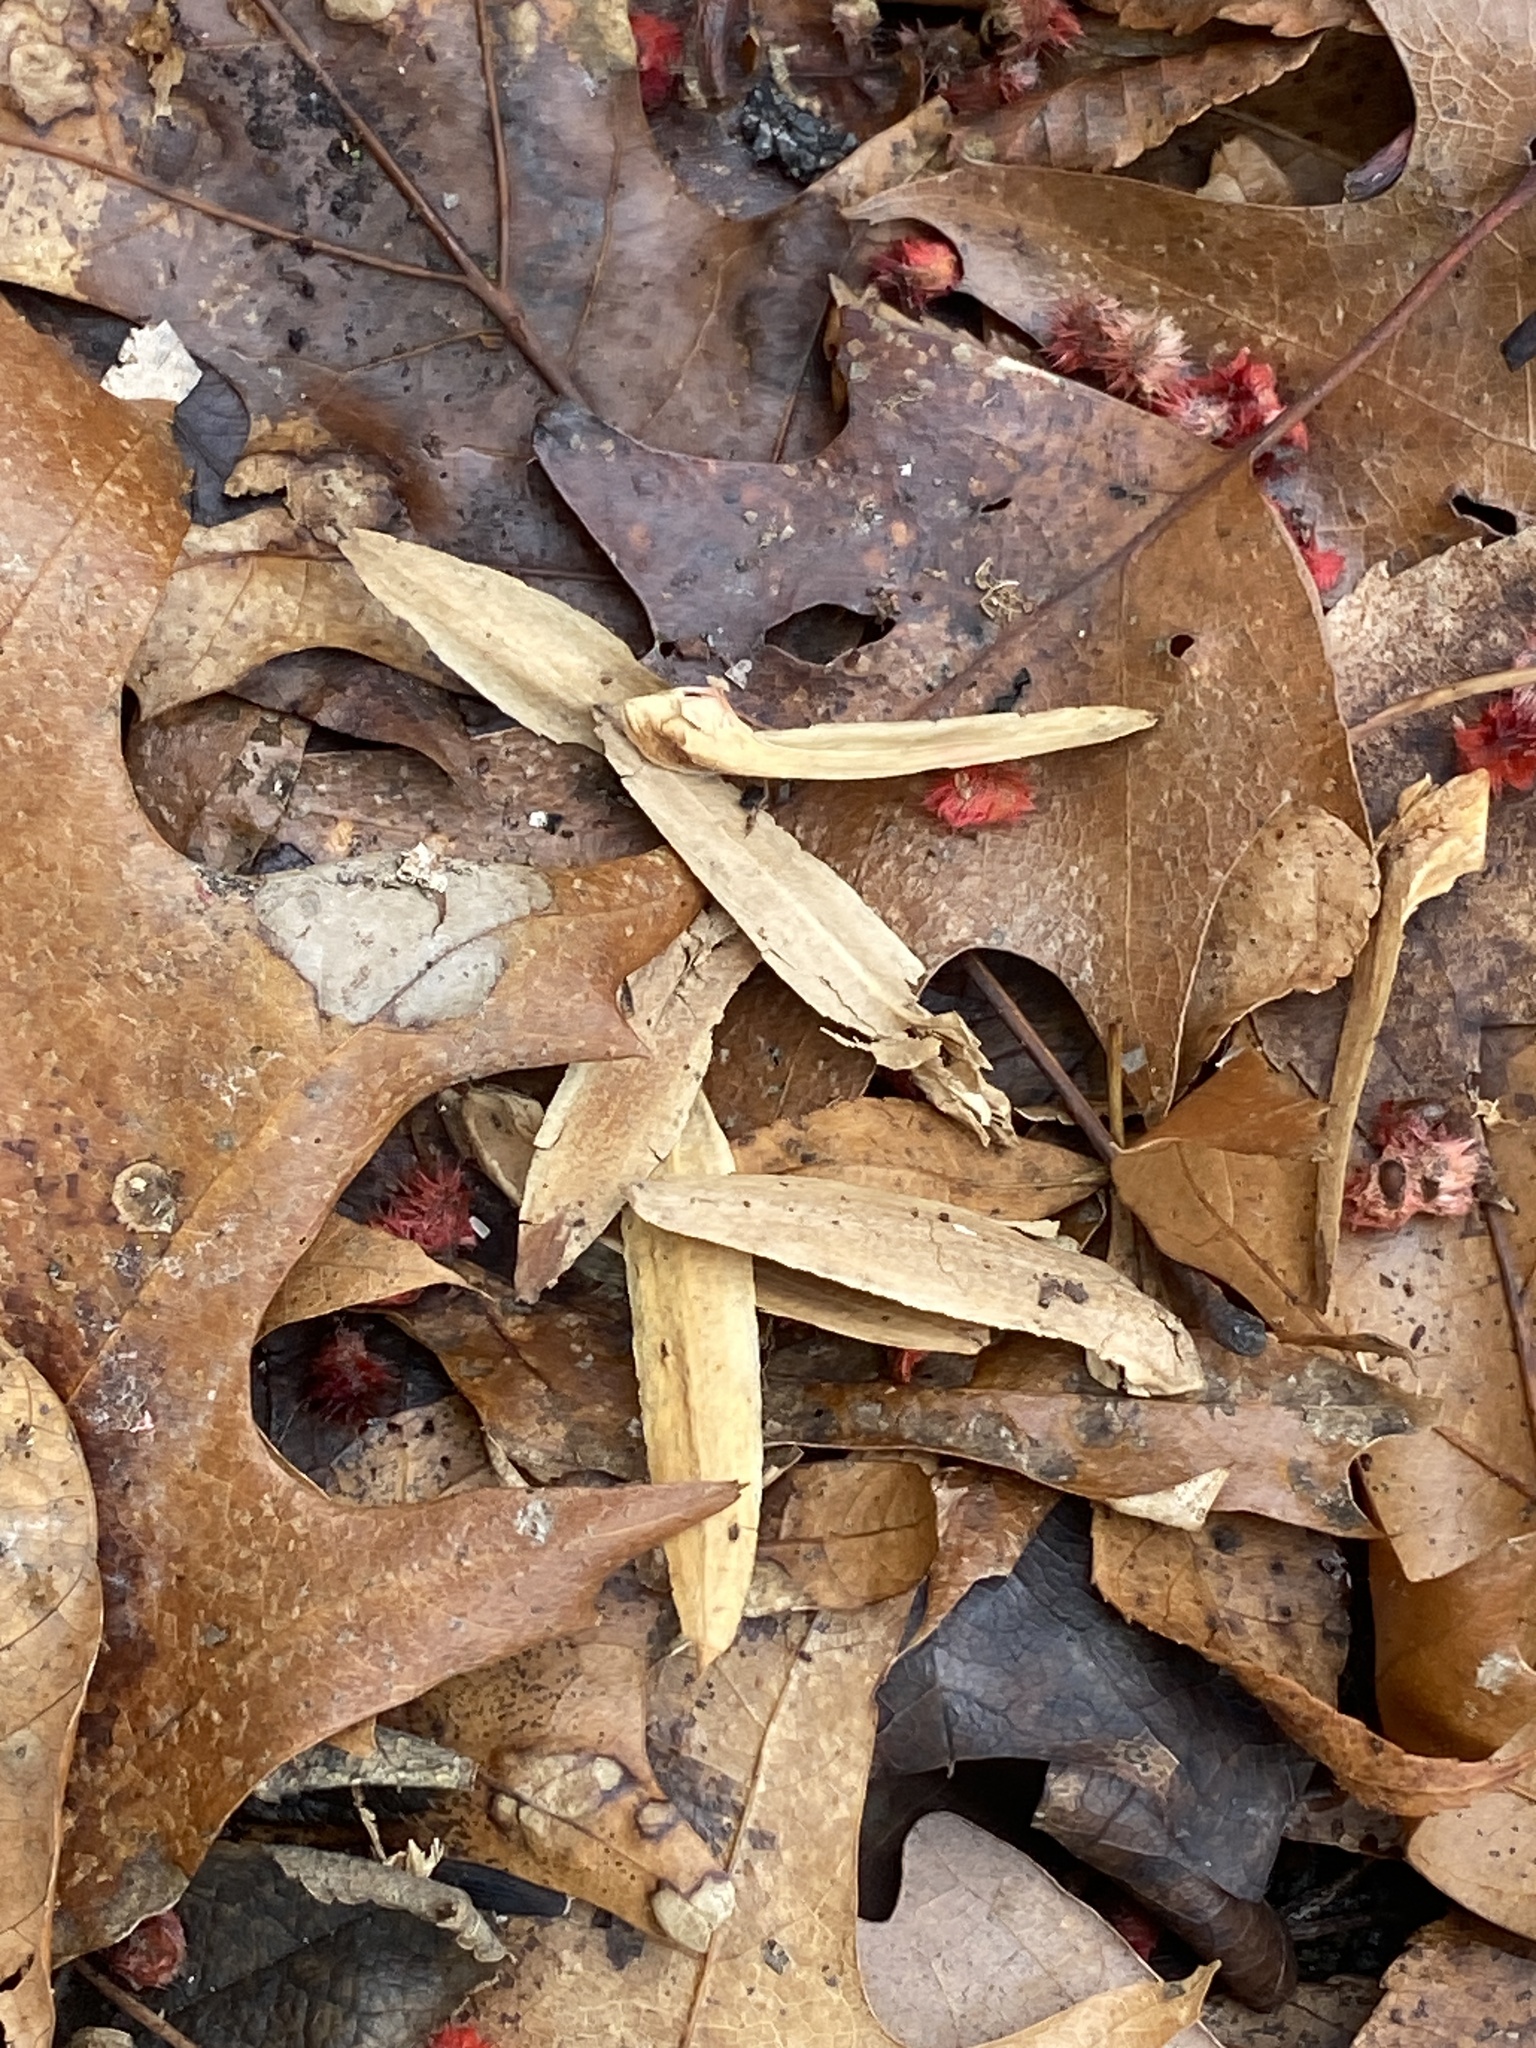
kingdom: Plantae
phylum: Tracheophyta
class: Magnoliopsida
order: Magnoliales
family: Magnoliaceae
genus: Liriodendron
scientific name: Liriodendron tulipifera
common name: Tulip tree
